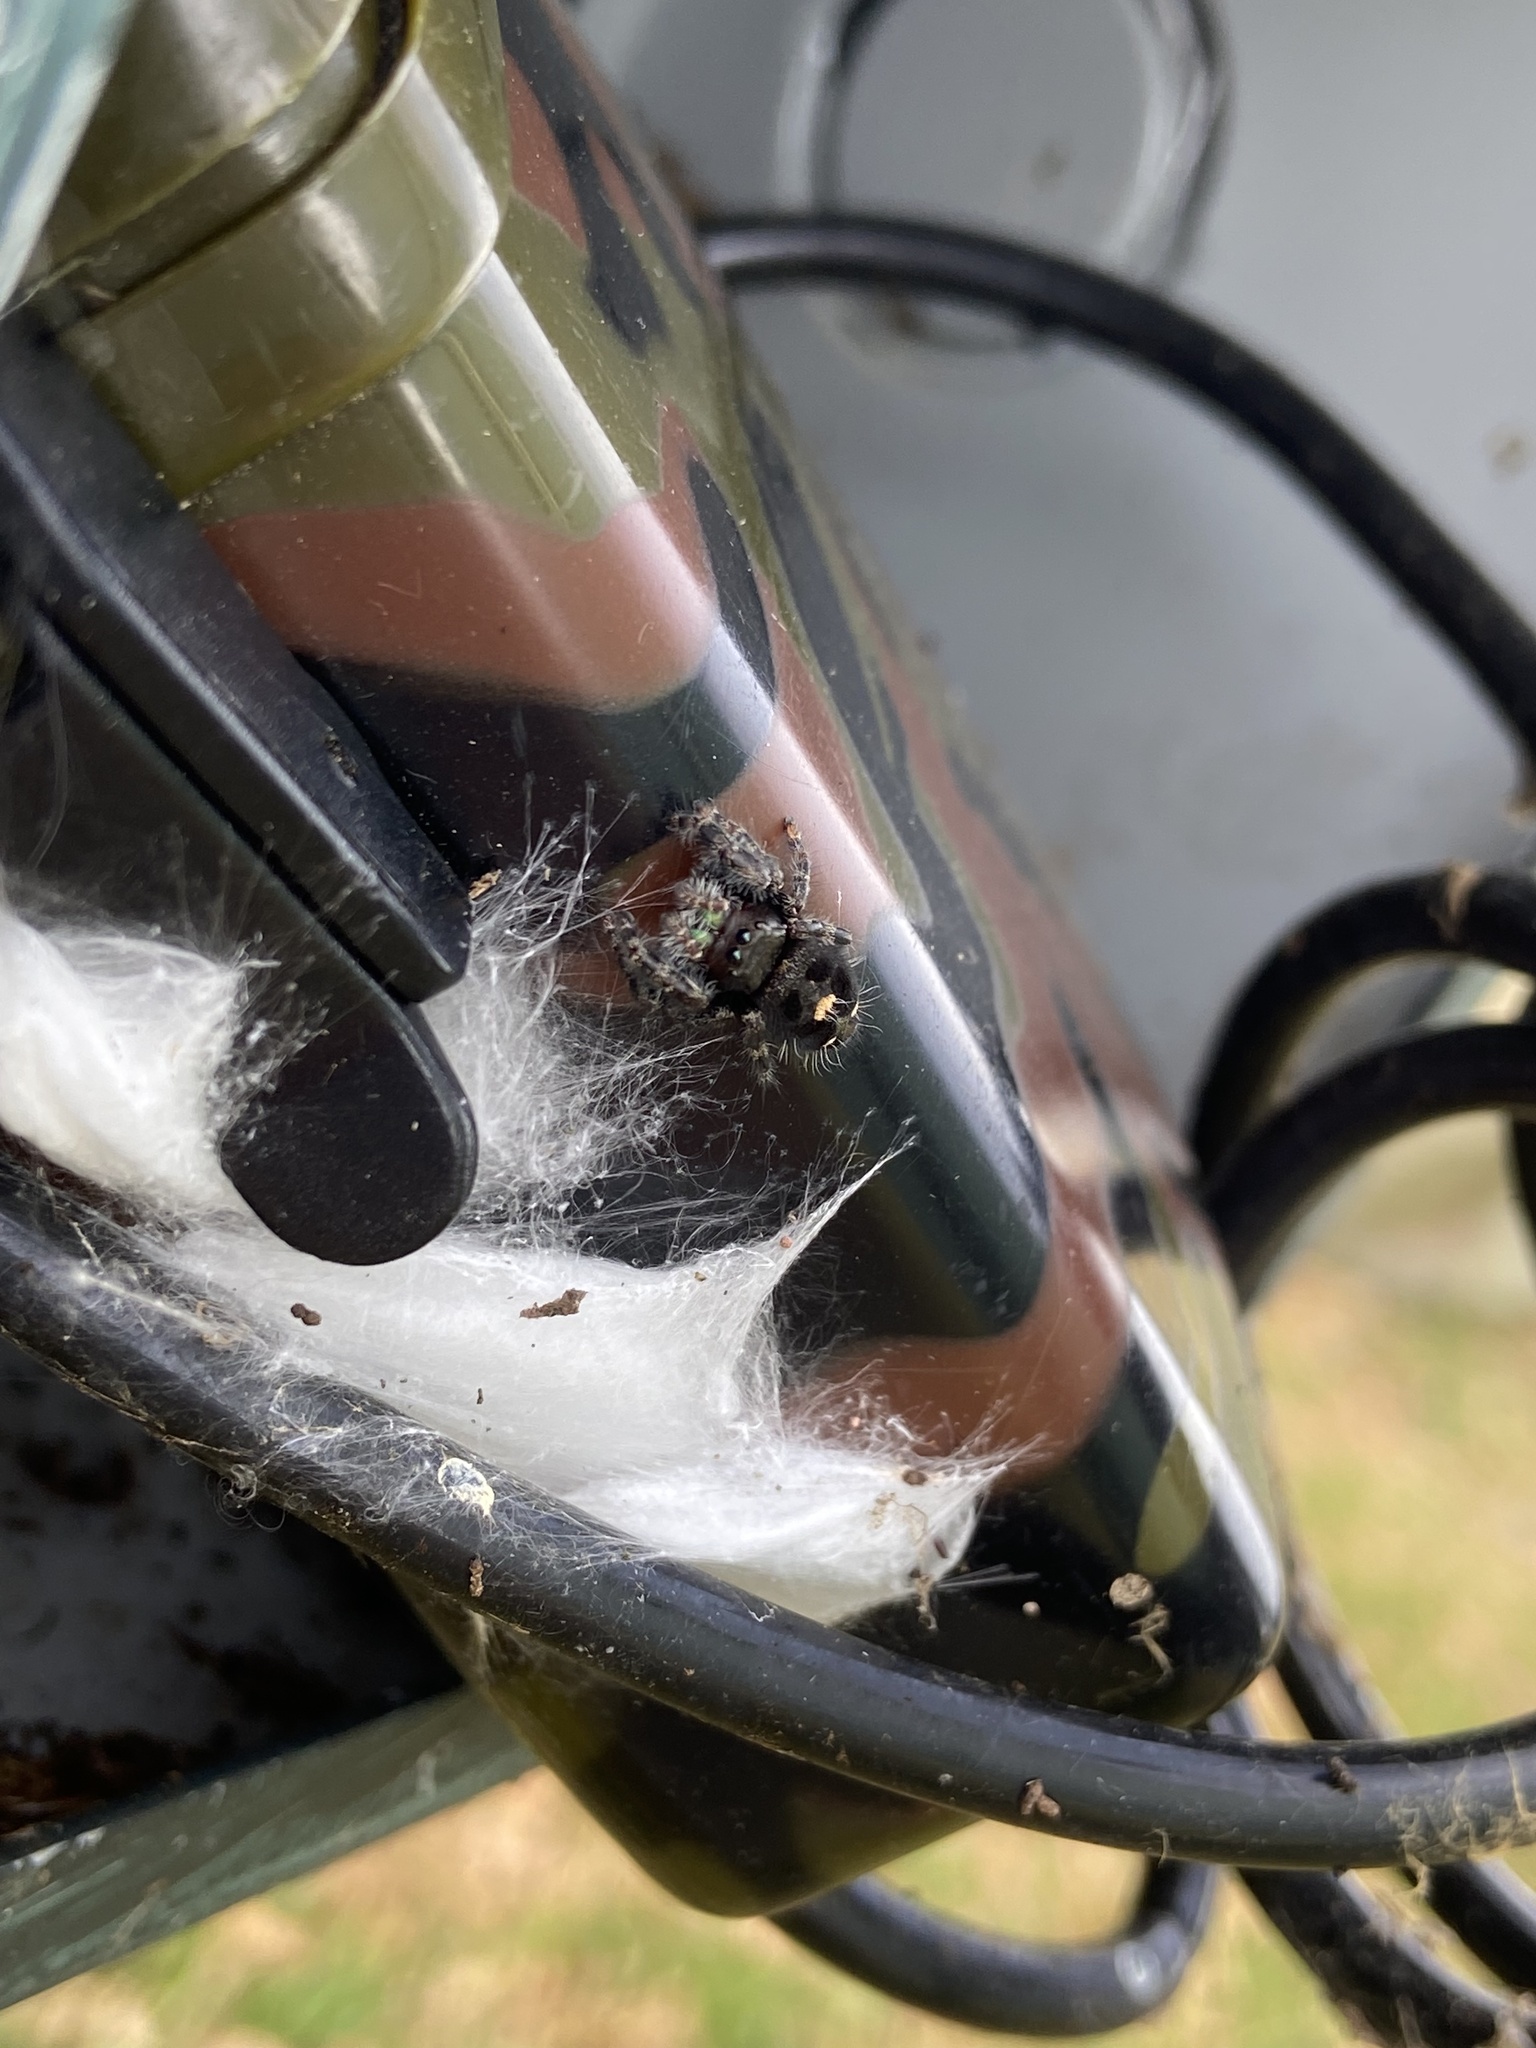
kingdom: Animalia
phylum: Arthropoda
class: Arachnida
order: Araneae
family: Salticidae
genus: Phidippus
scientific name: Phidippus audax
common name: Bold jumper
